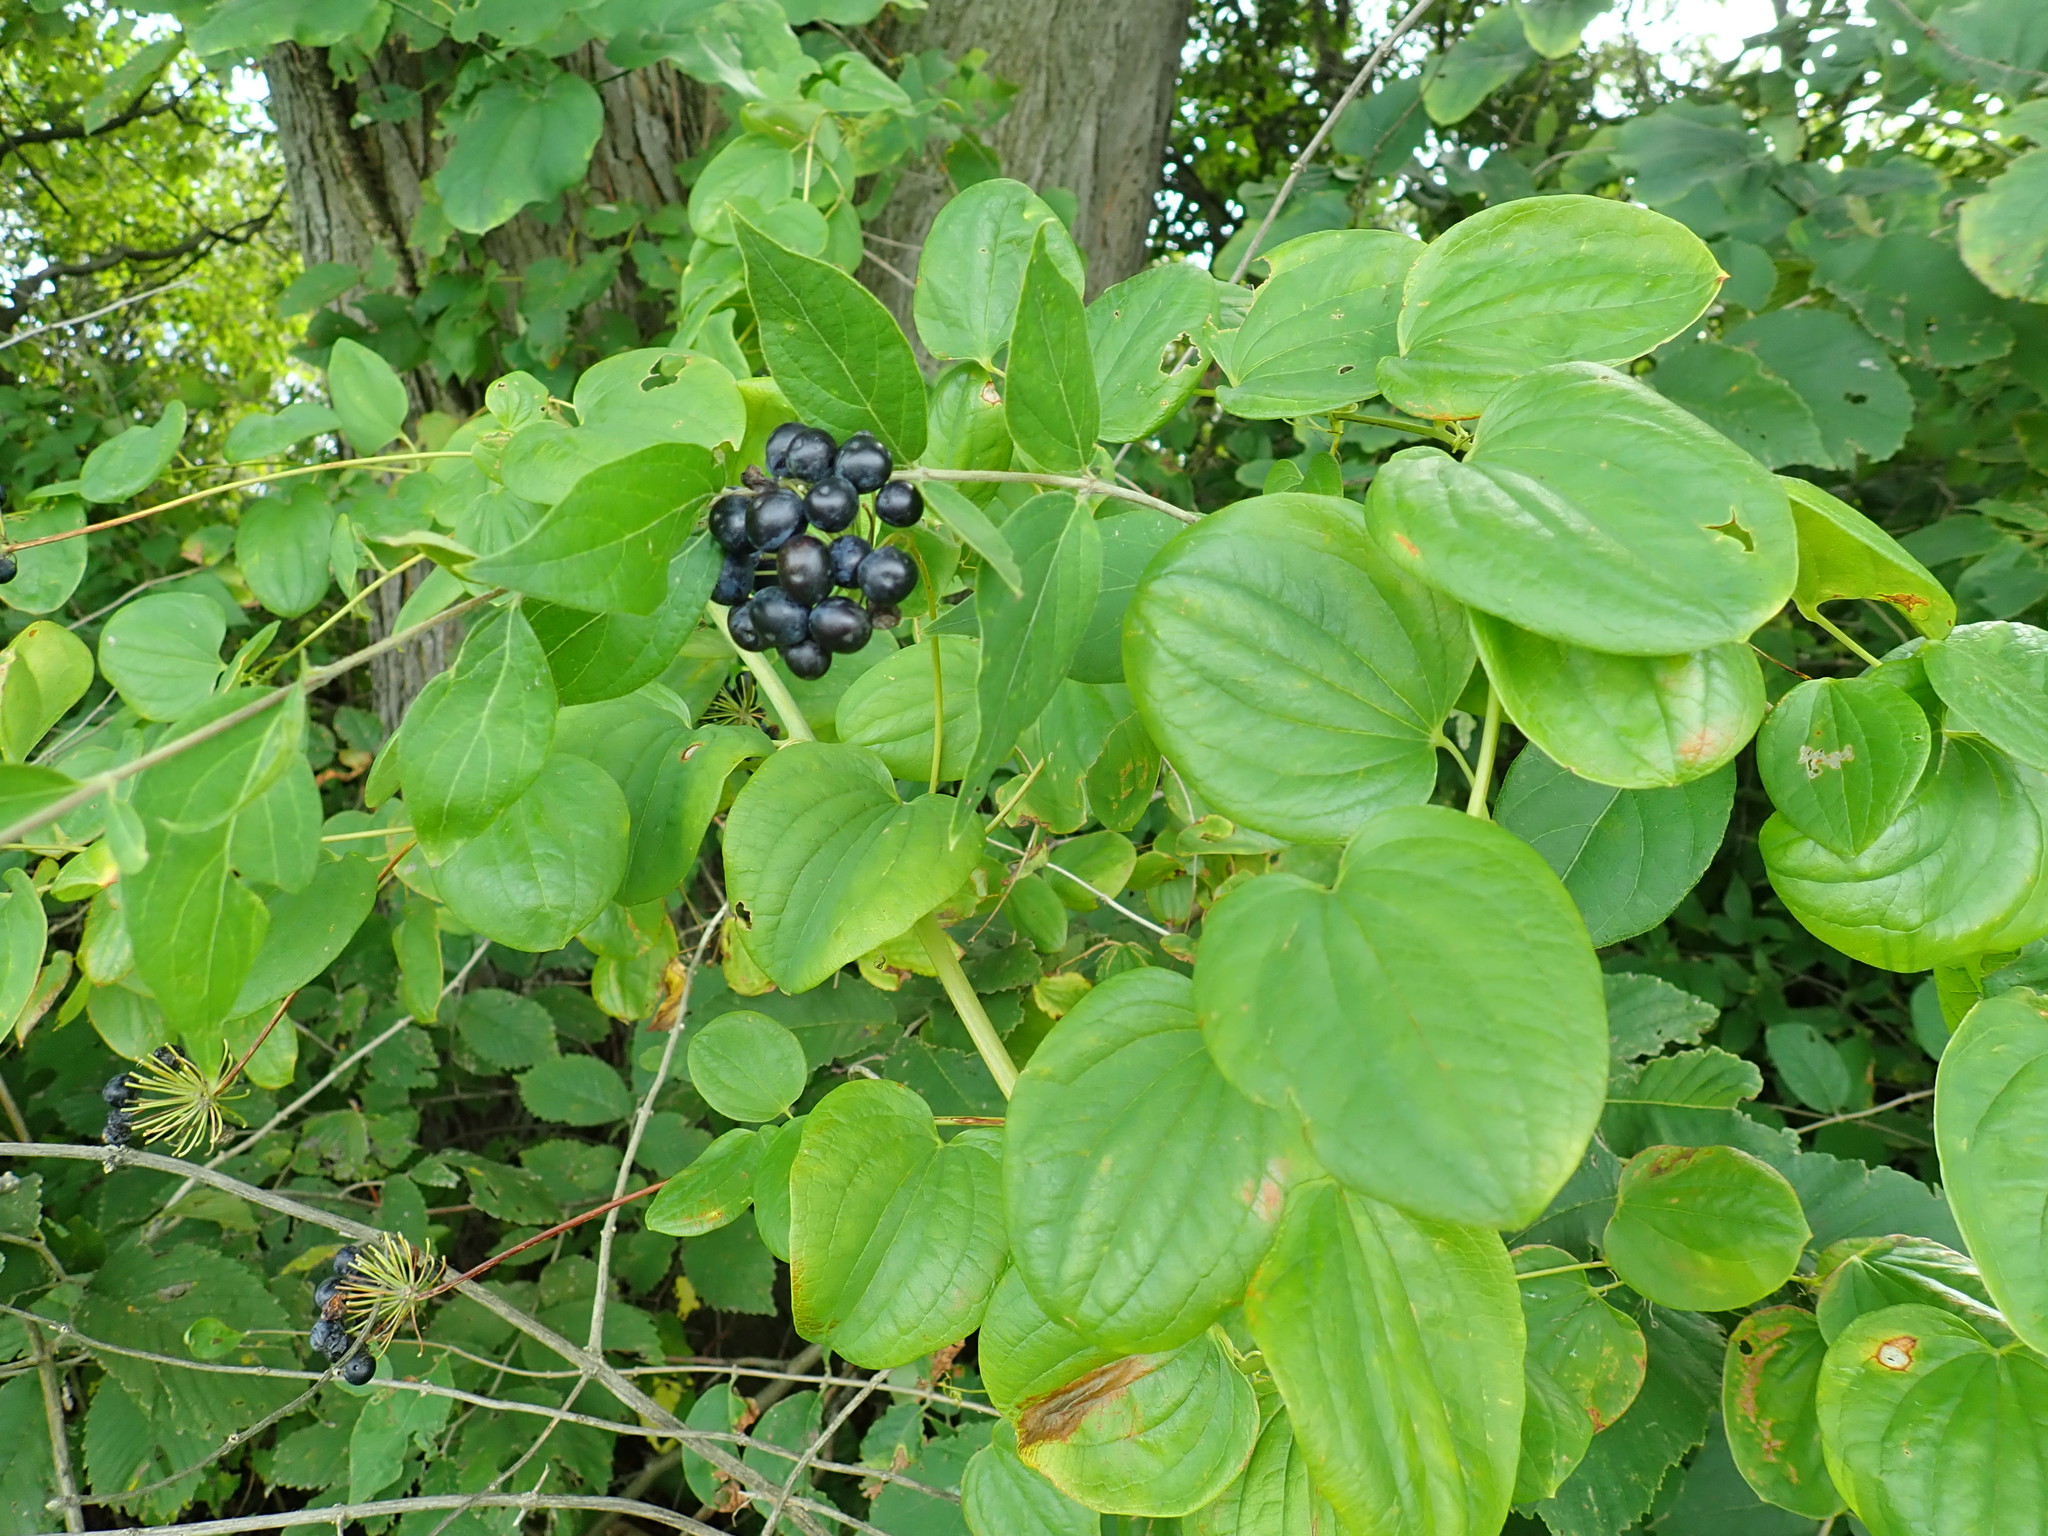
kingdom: Plantae
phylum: Tracheophyta
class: Liliopsida
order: Liliales
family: Smilacaceae
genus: Smilax
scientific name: Smilax lasioneura
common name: Blue ridge carrionflower
